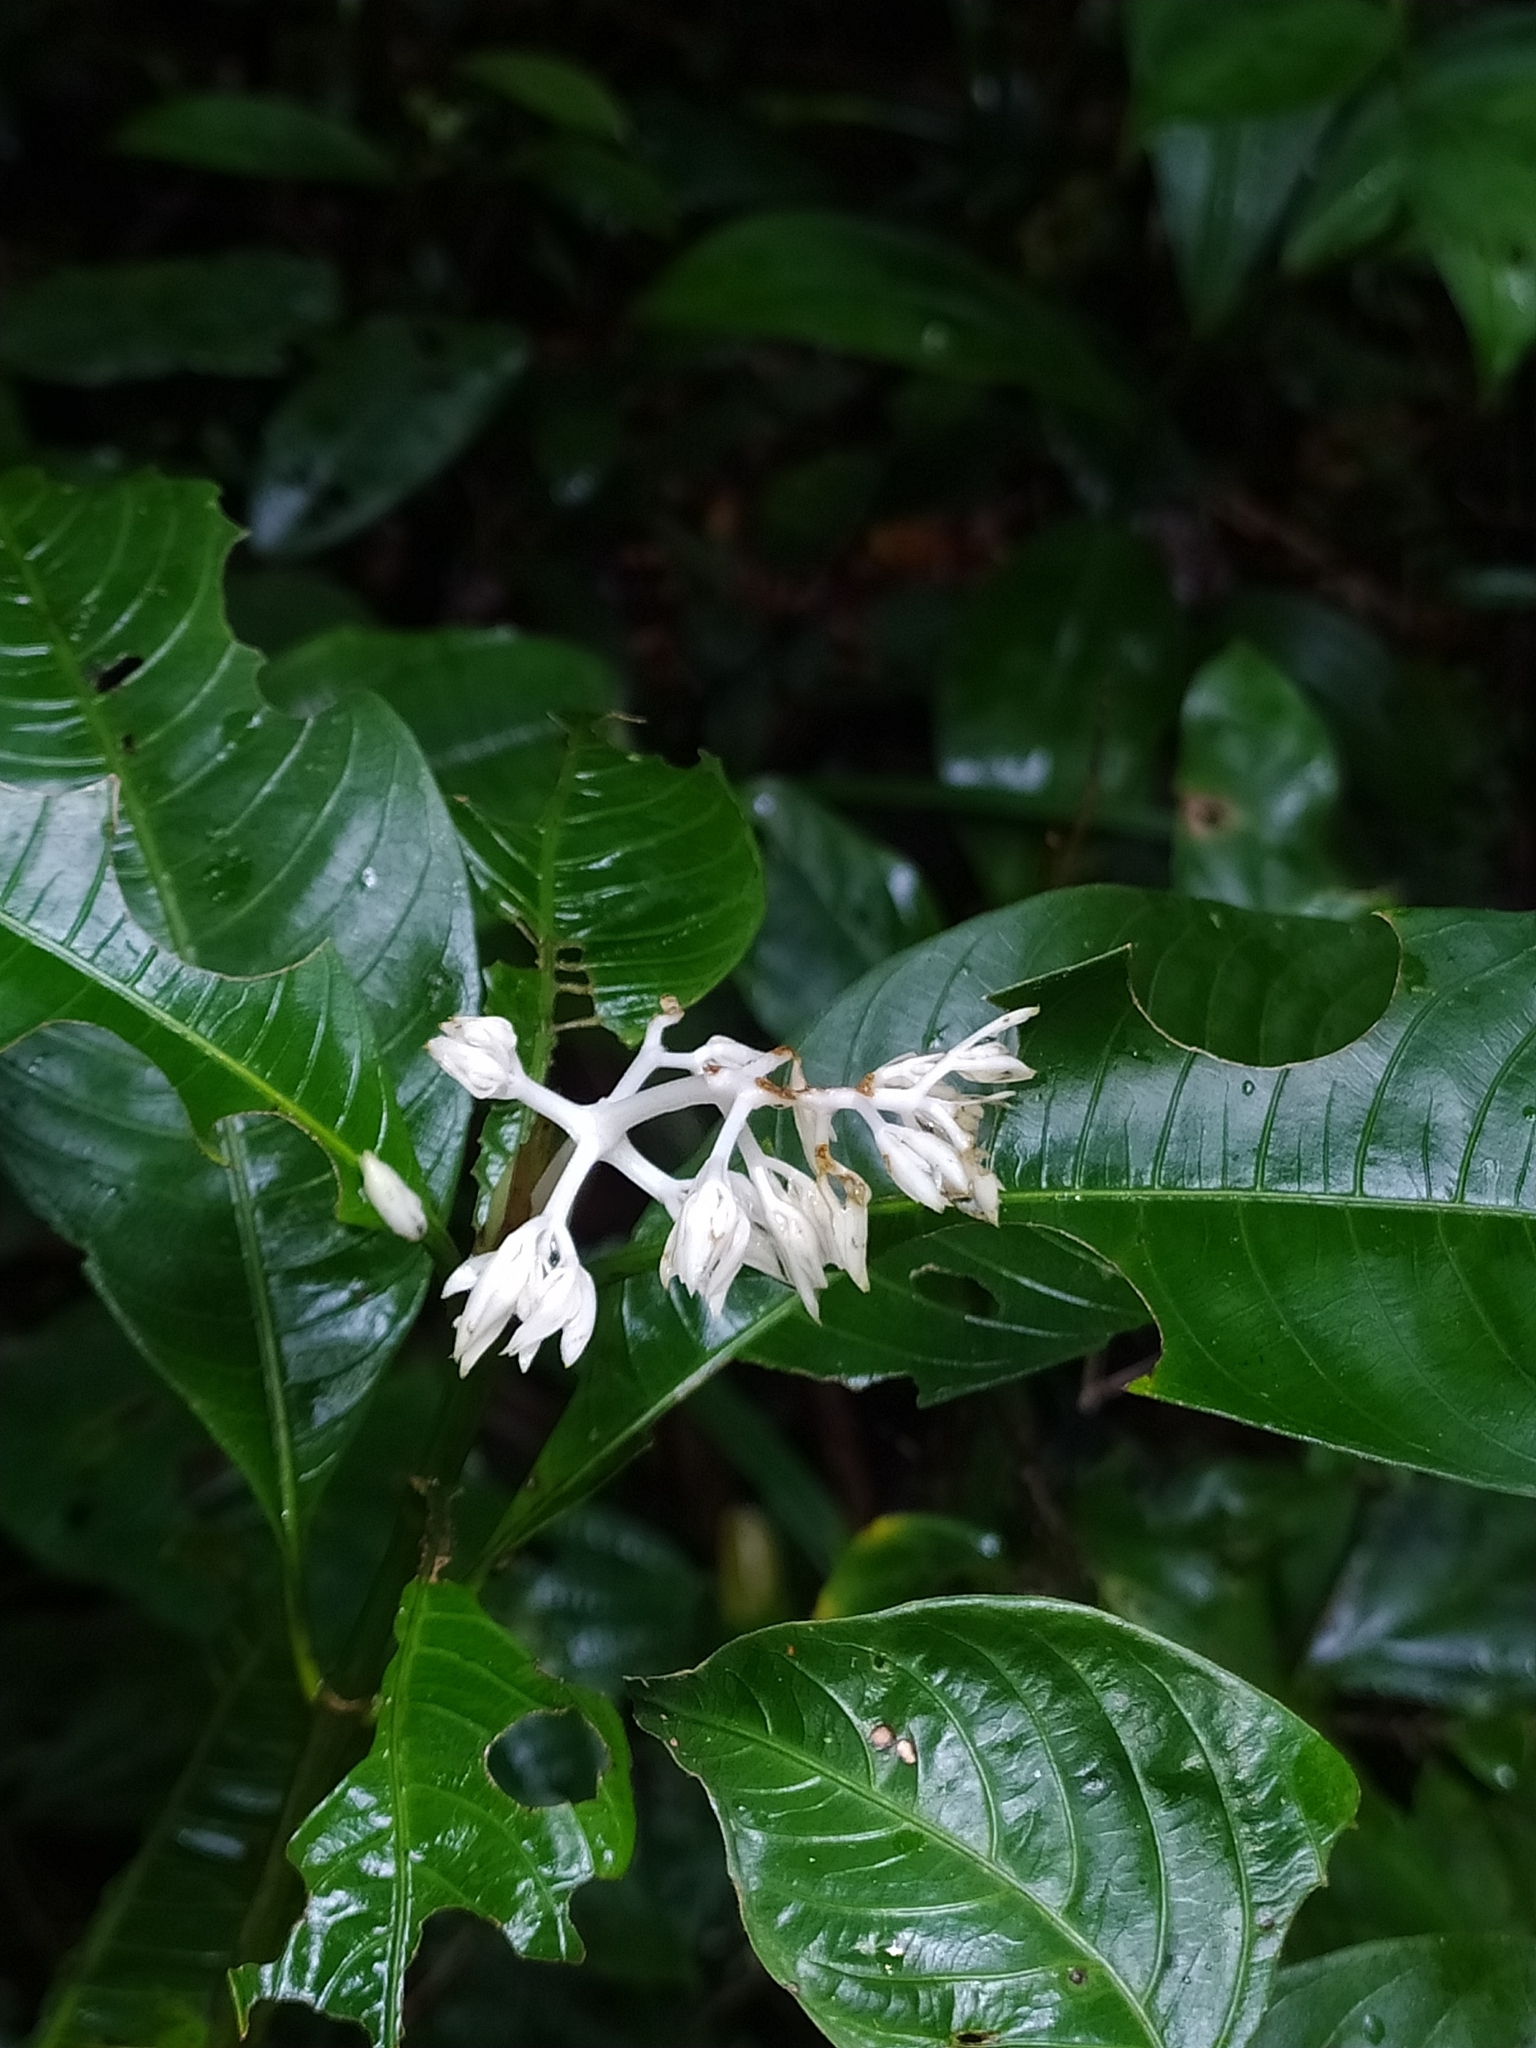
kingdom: Plantae
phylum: Tracheophyta
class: Magnoliopsida
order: Gentianales
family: Rubiaceae
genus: Palicourea
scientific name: Palicourea violacea
